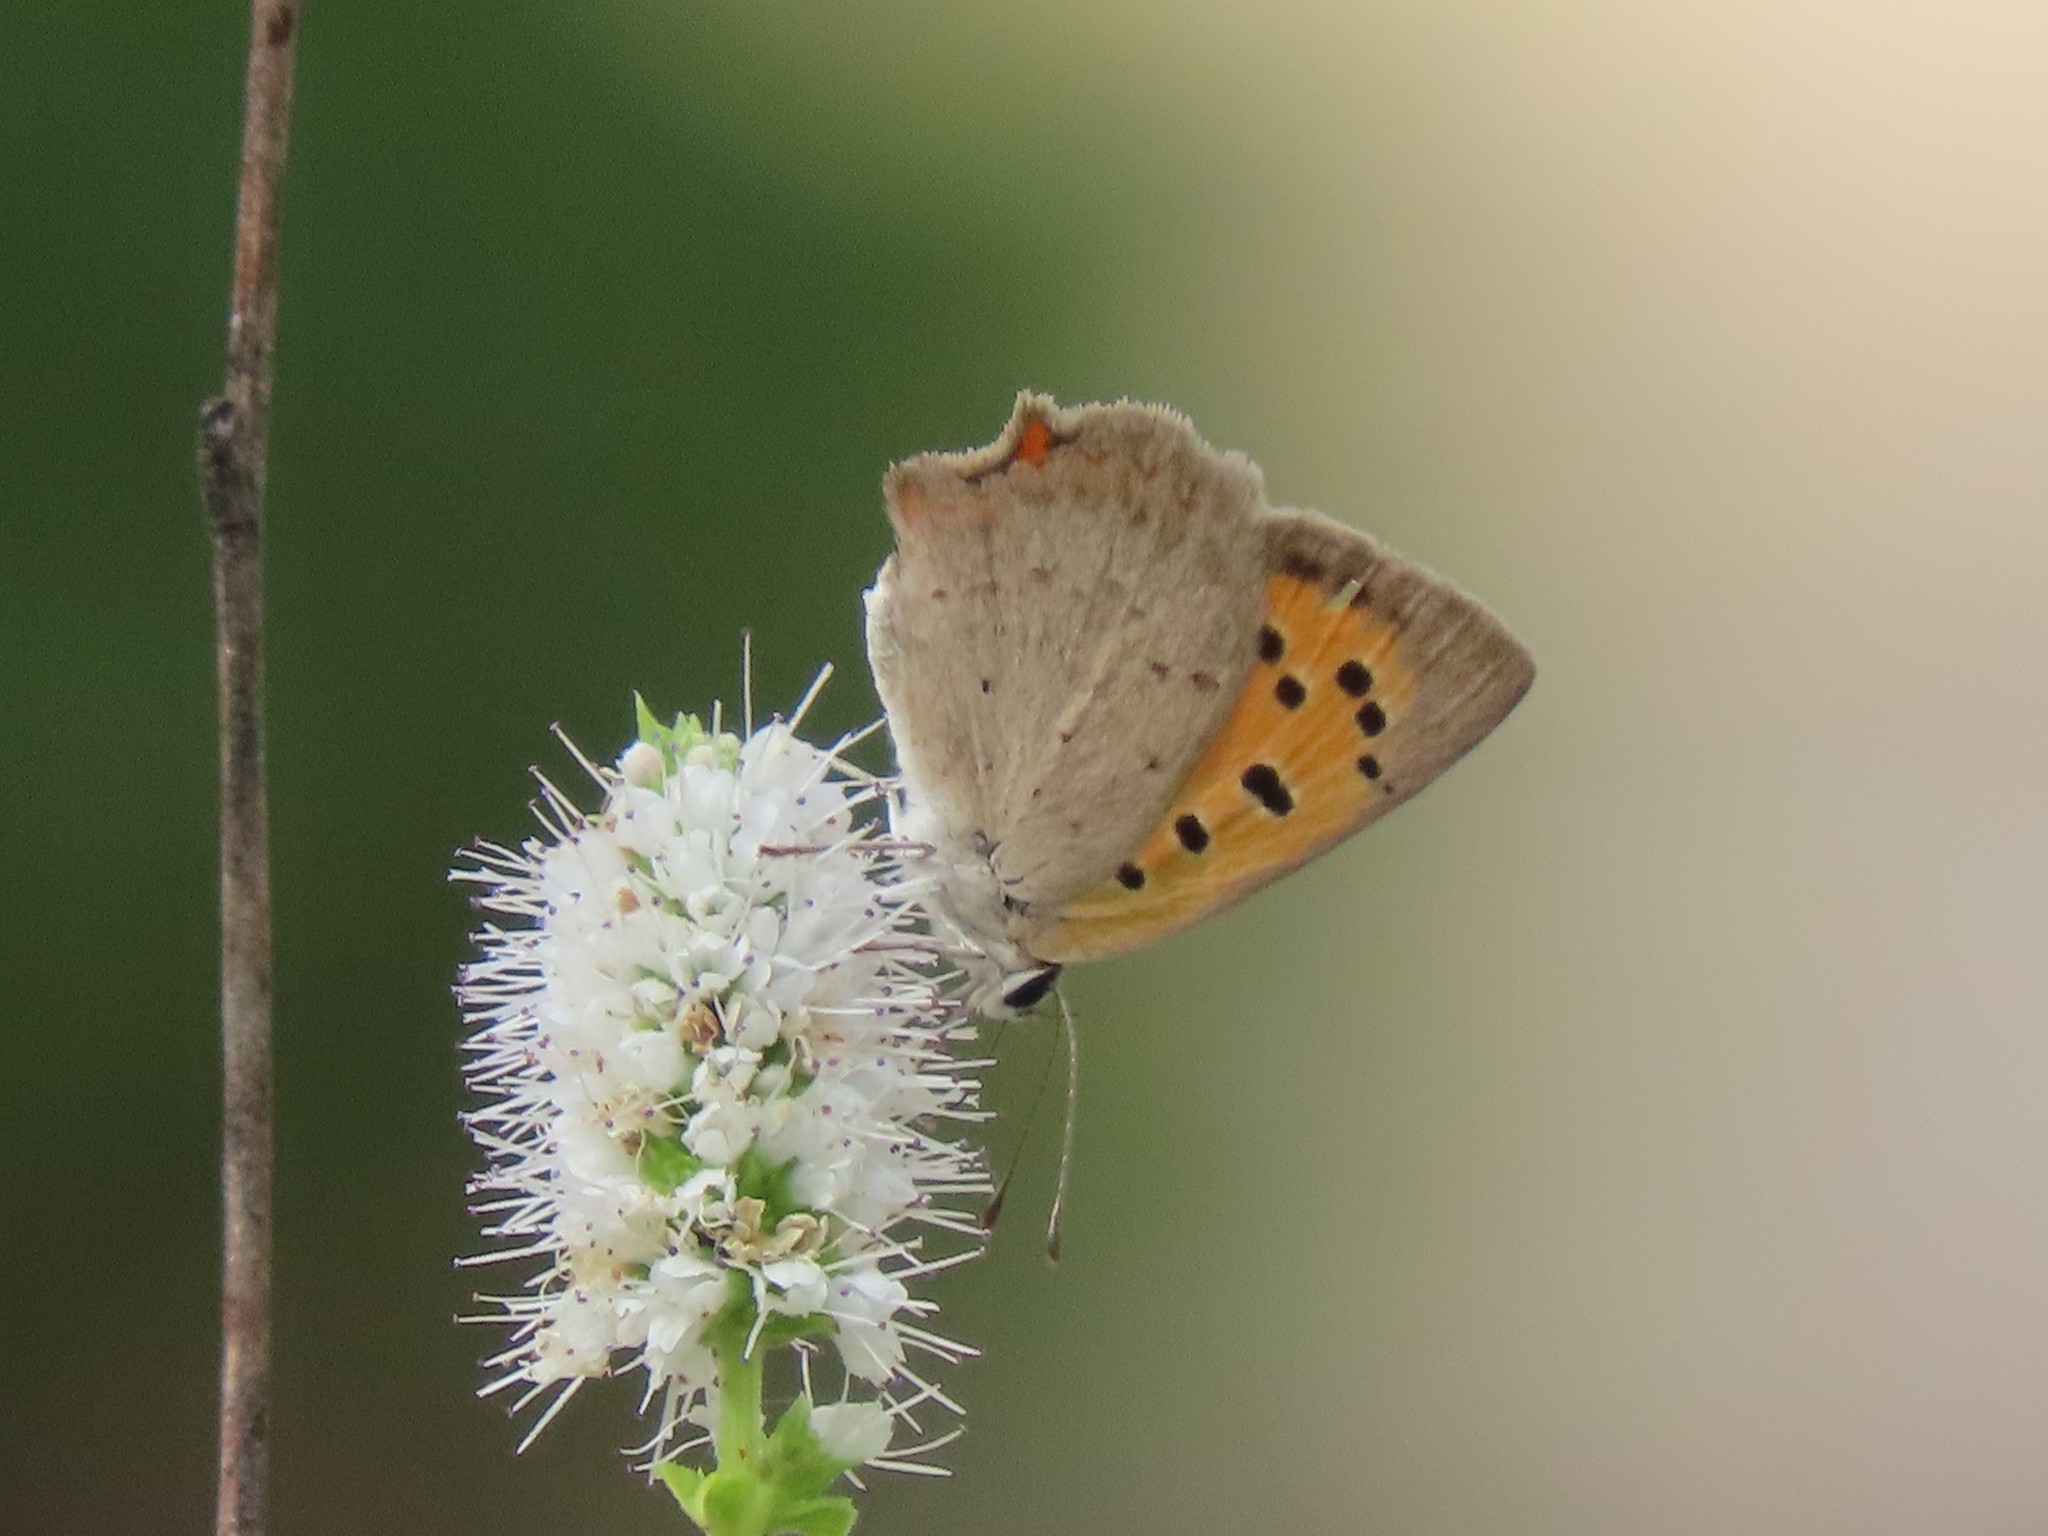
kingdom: Animalia
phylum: Arthropoda
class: Insecta
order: Lepidoptera
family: Lycaenidae
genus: Lycaena
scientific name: Lycaena phlaeas
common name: Small copper
